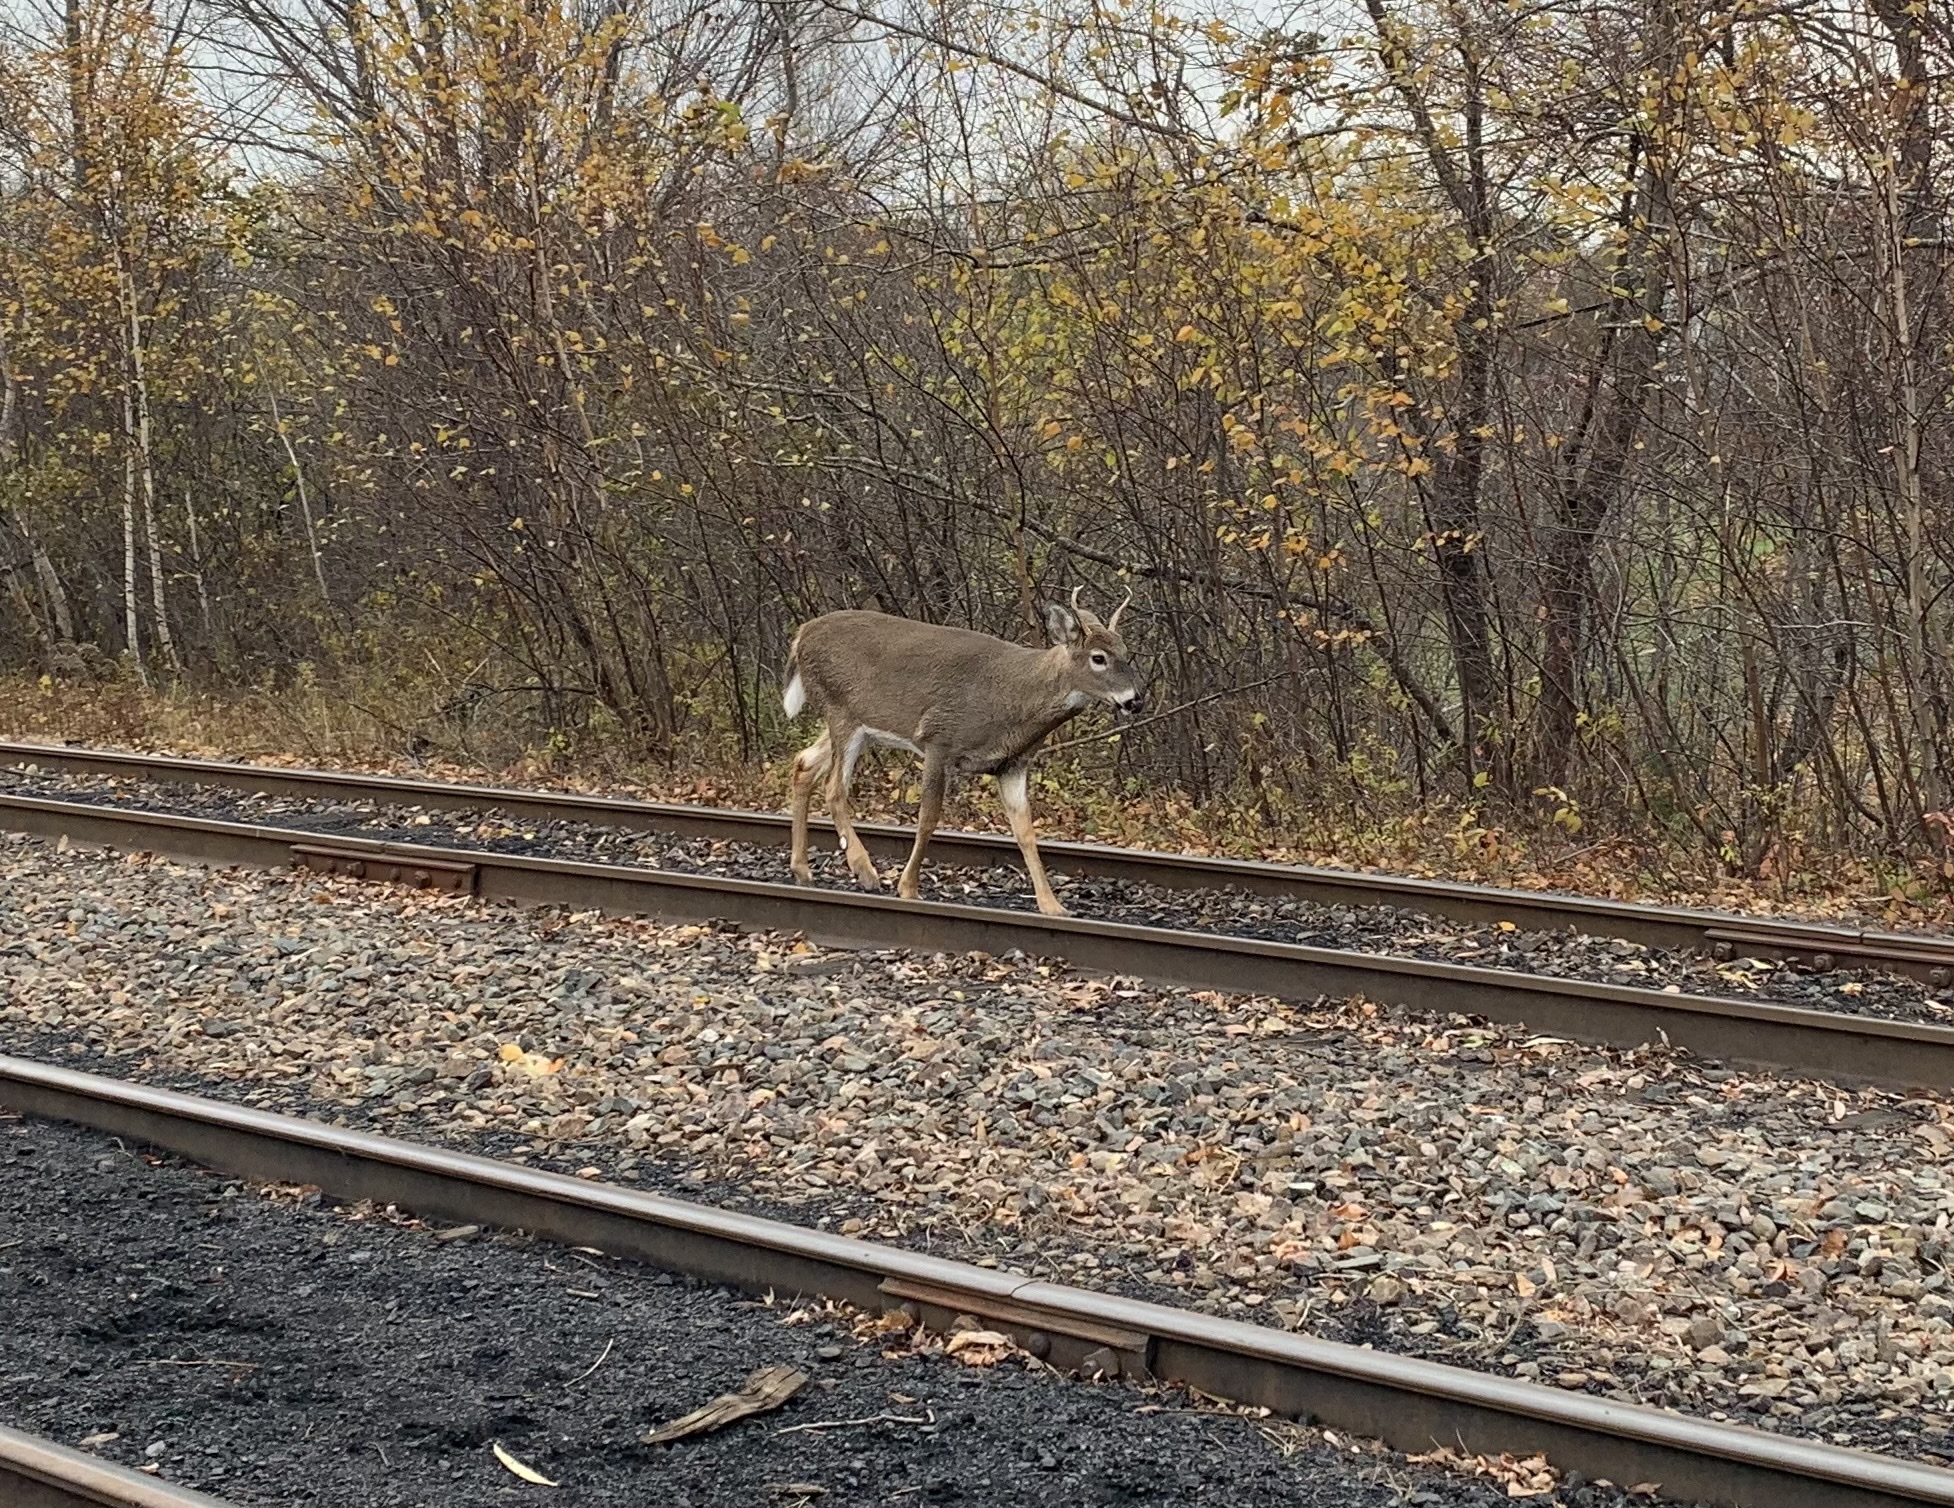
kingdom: Animalia
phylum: Chordata
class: Mammalia
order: Artiodactyla
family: Cervidae
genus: Odocoileus
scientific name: Odocoileus virginianus
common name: White-tailed deer
